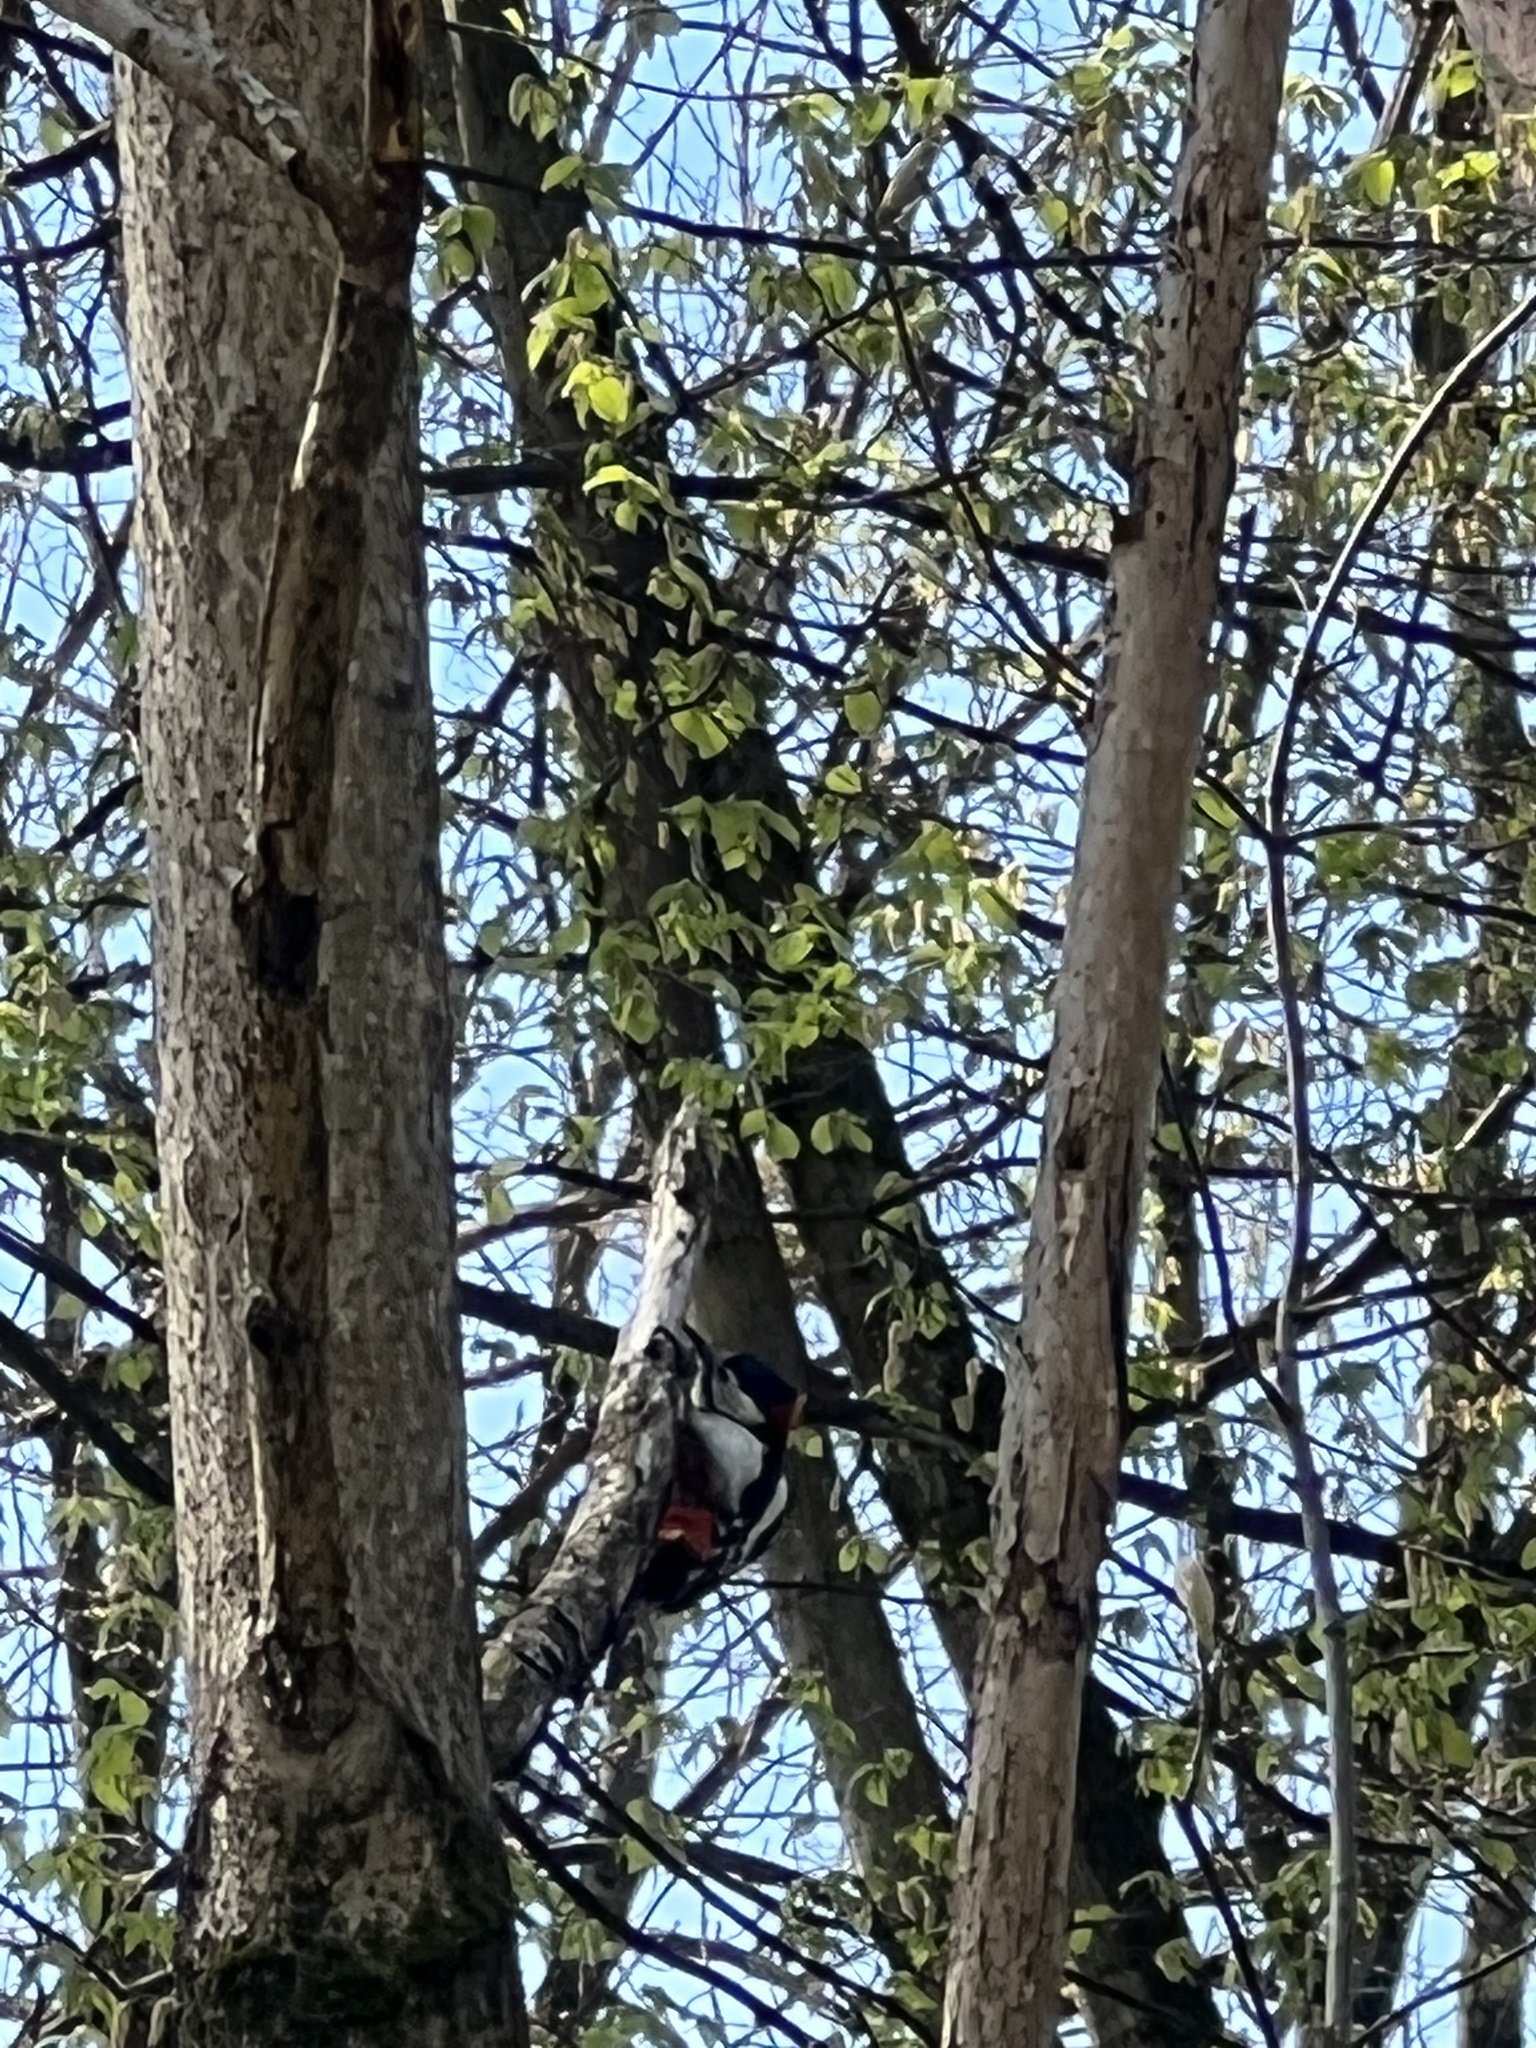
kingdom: Animalia
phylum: Chordata
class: Aves
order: Piciformes
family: Picidae
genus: Dendrocopos
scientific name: Dendrocopos major
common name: Great spotted woodpecker
